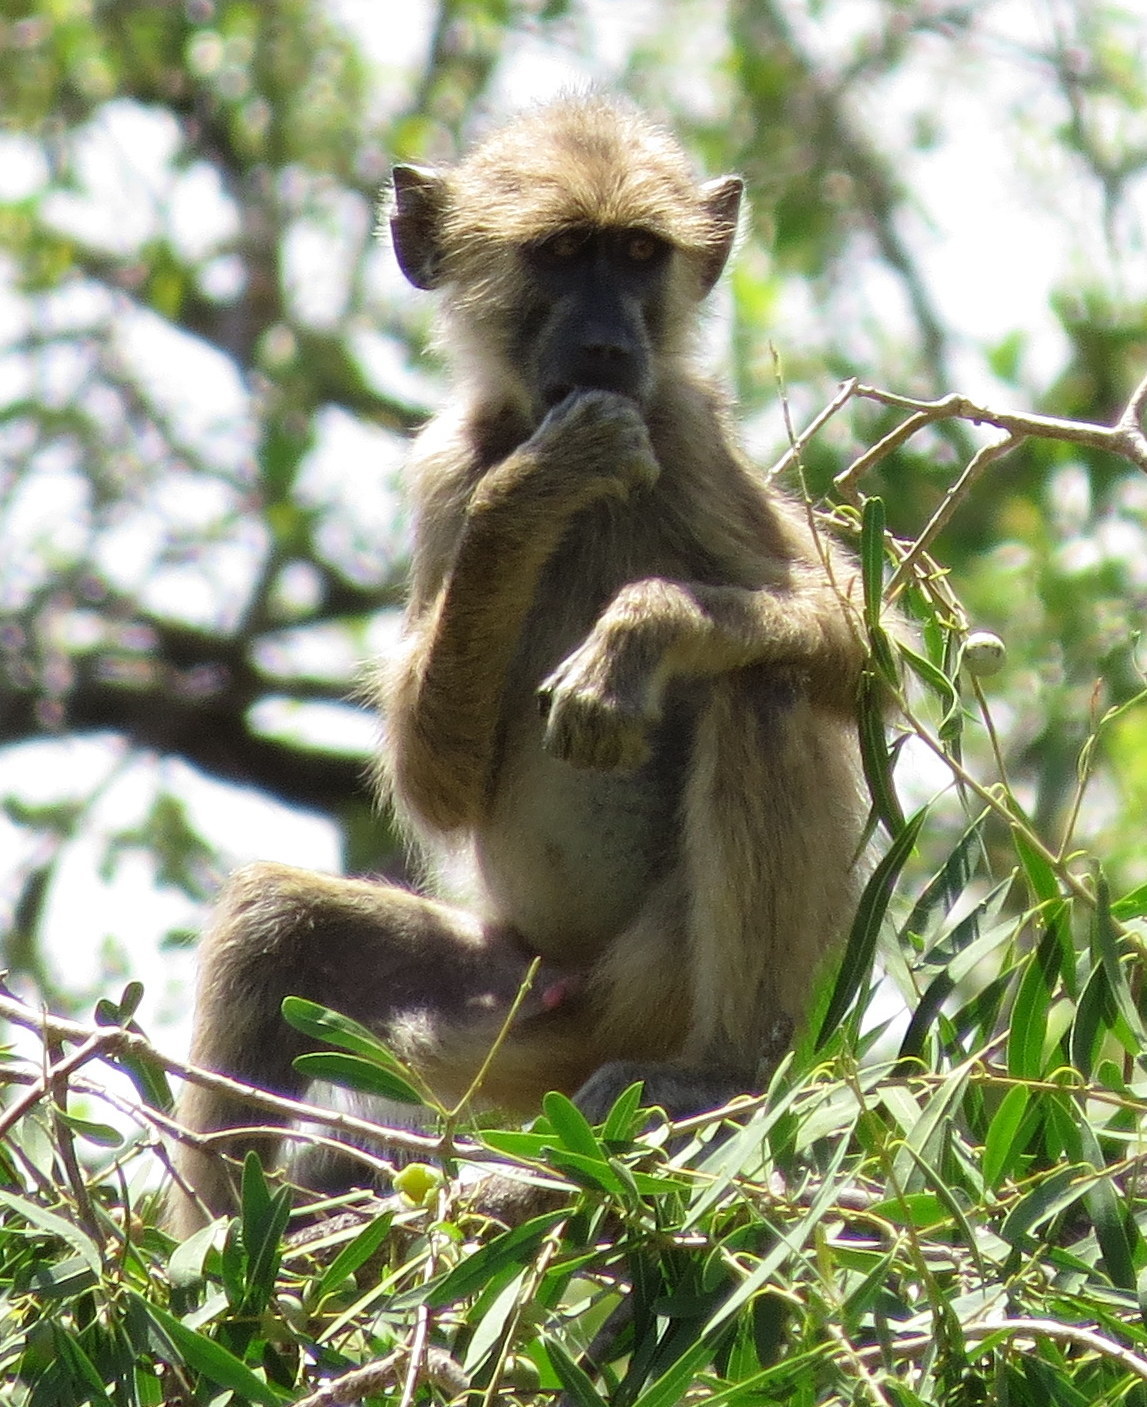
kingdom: Animalia
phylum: Chordata
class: Mammalia
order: Primates
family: Cercopithecidae
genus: Papio
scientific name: Papio cynocephalus
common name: Yellow baboon
